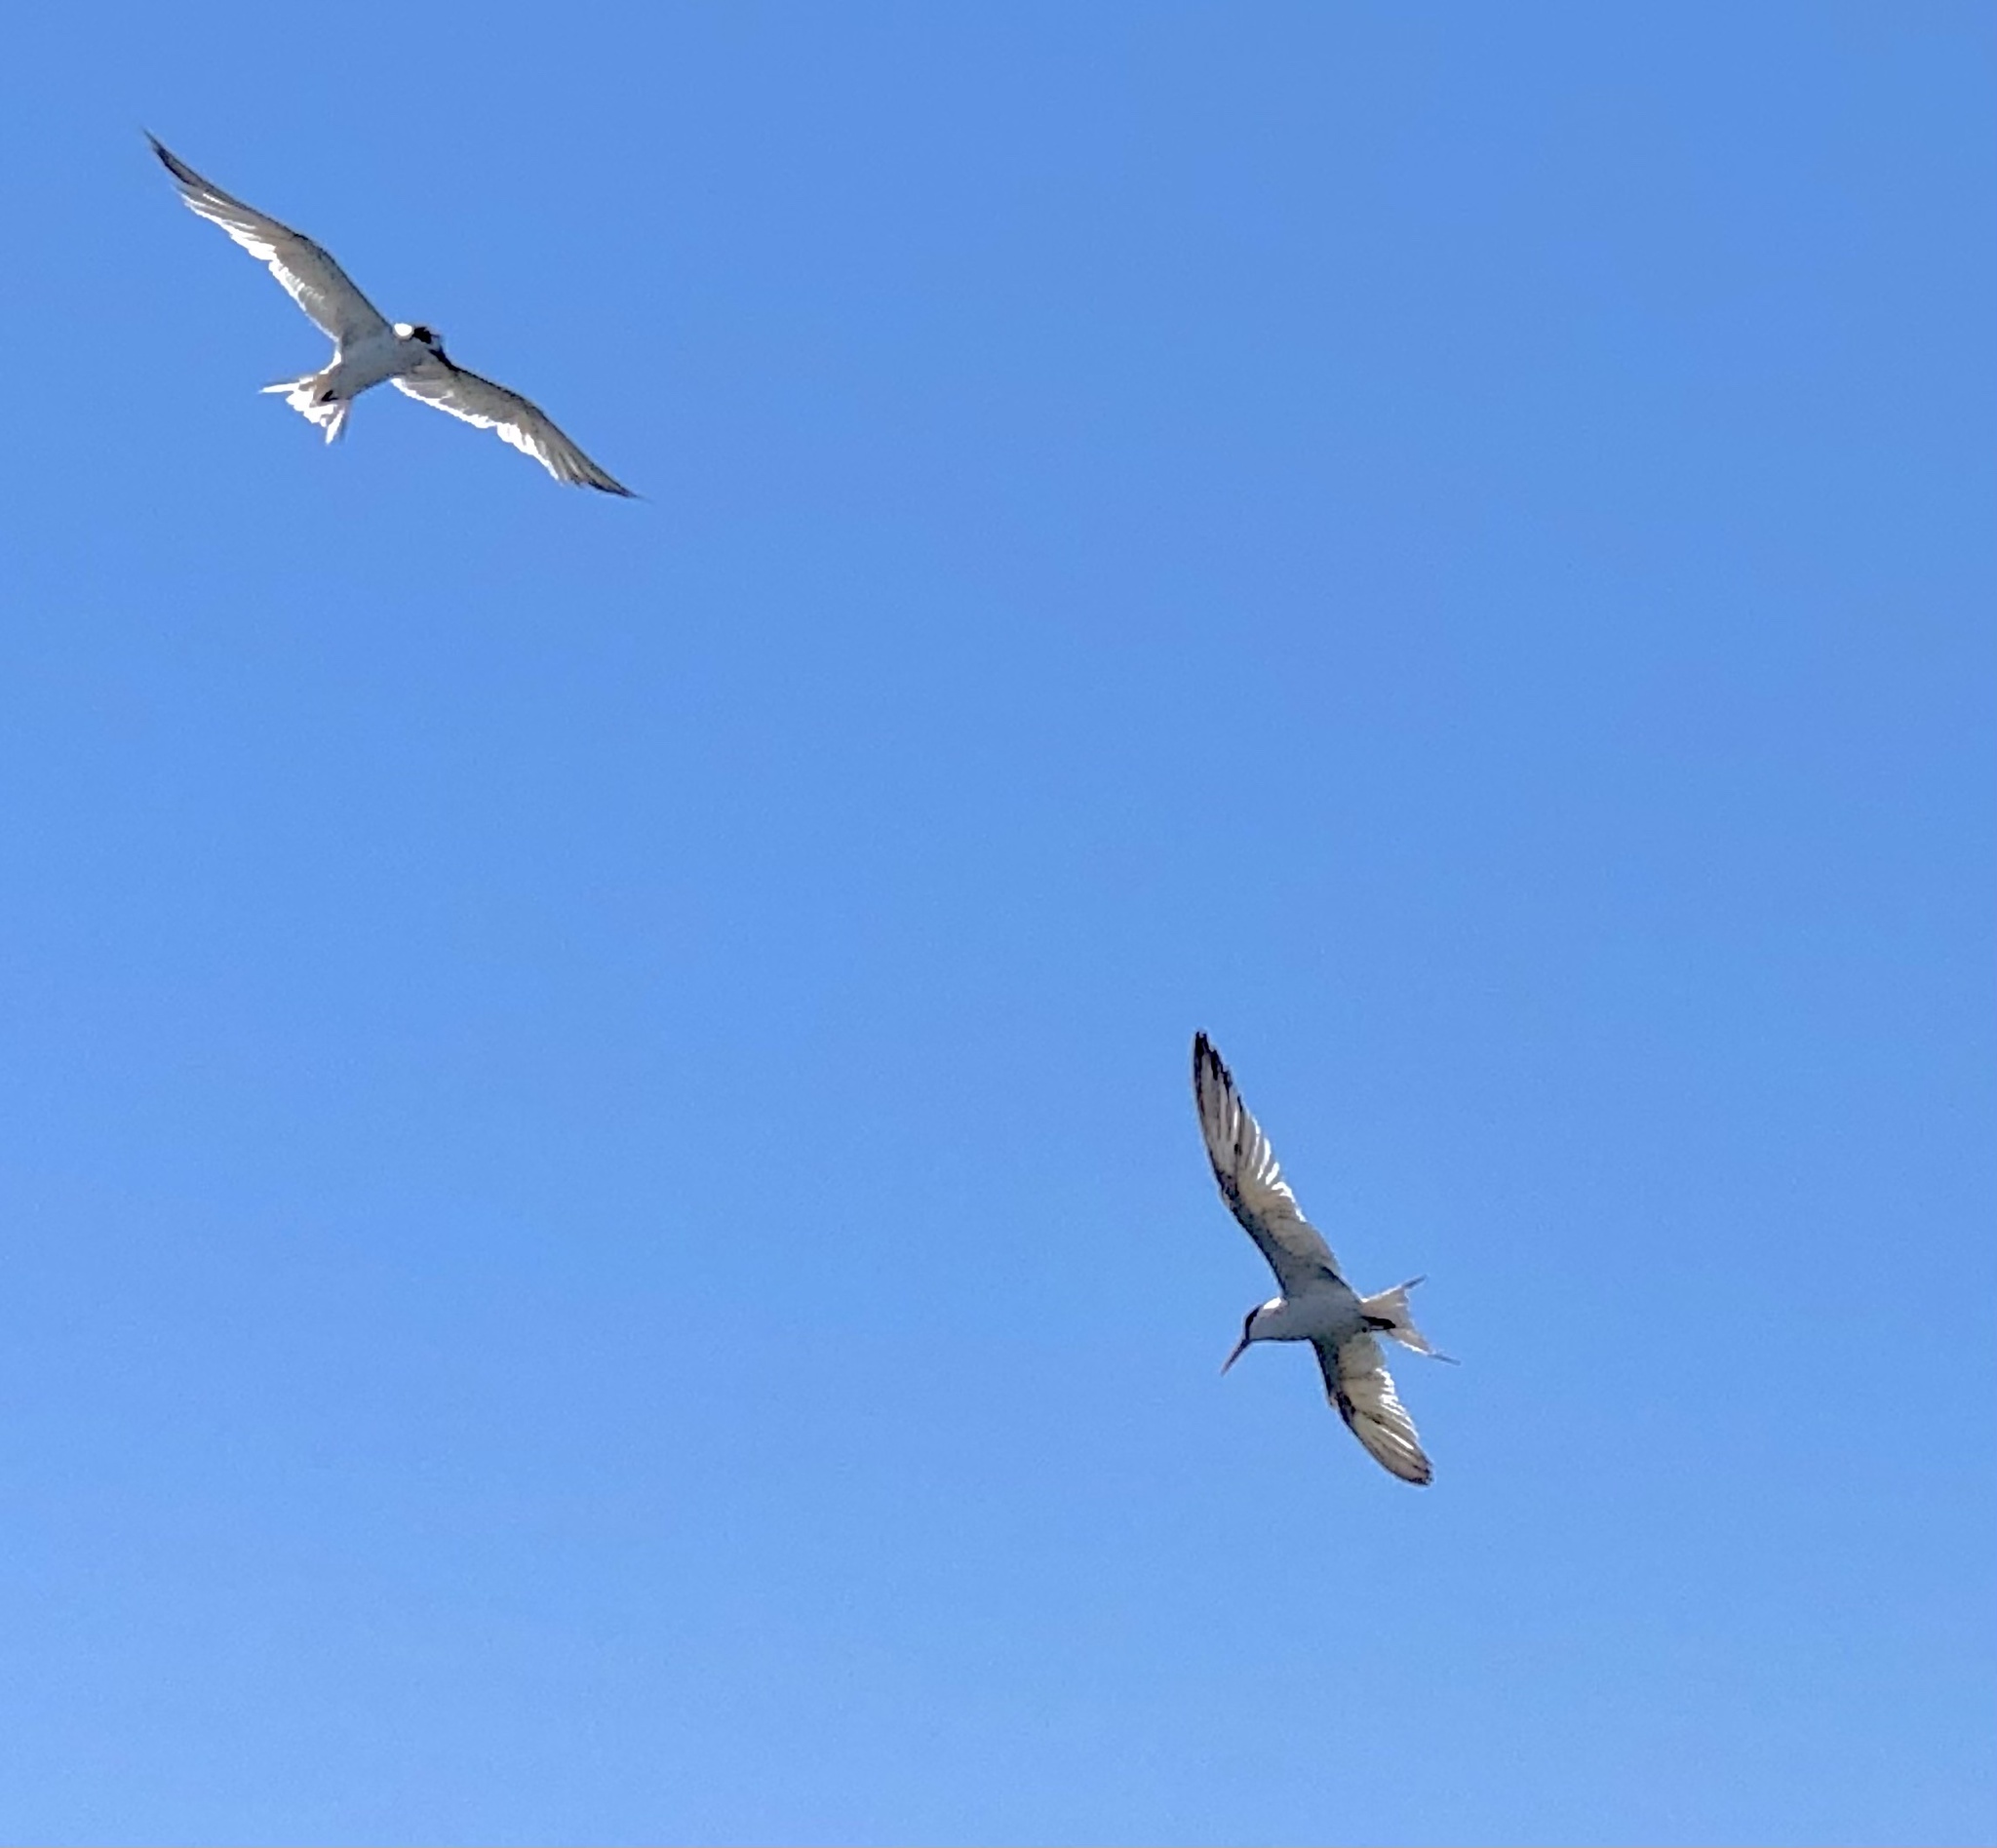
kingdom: Animalia
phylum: Chordata
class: Aves
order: Charadriiformes
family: Laridae
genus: Thalasseus
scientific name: Thalasseus elegans
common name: Elegant tern
